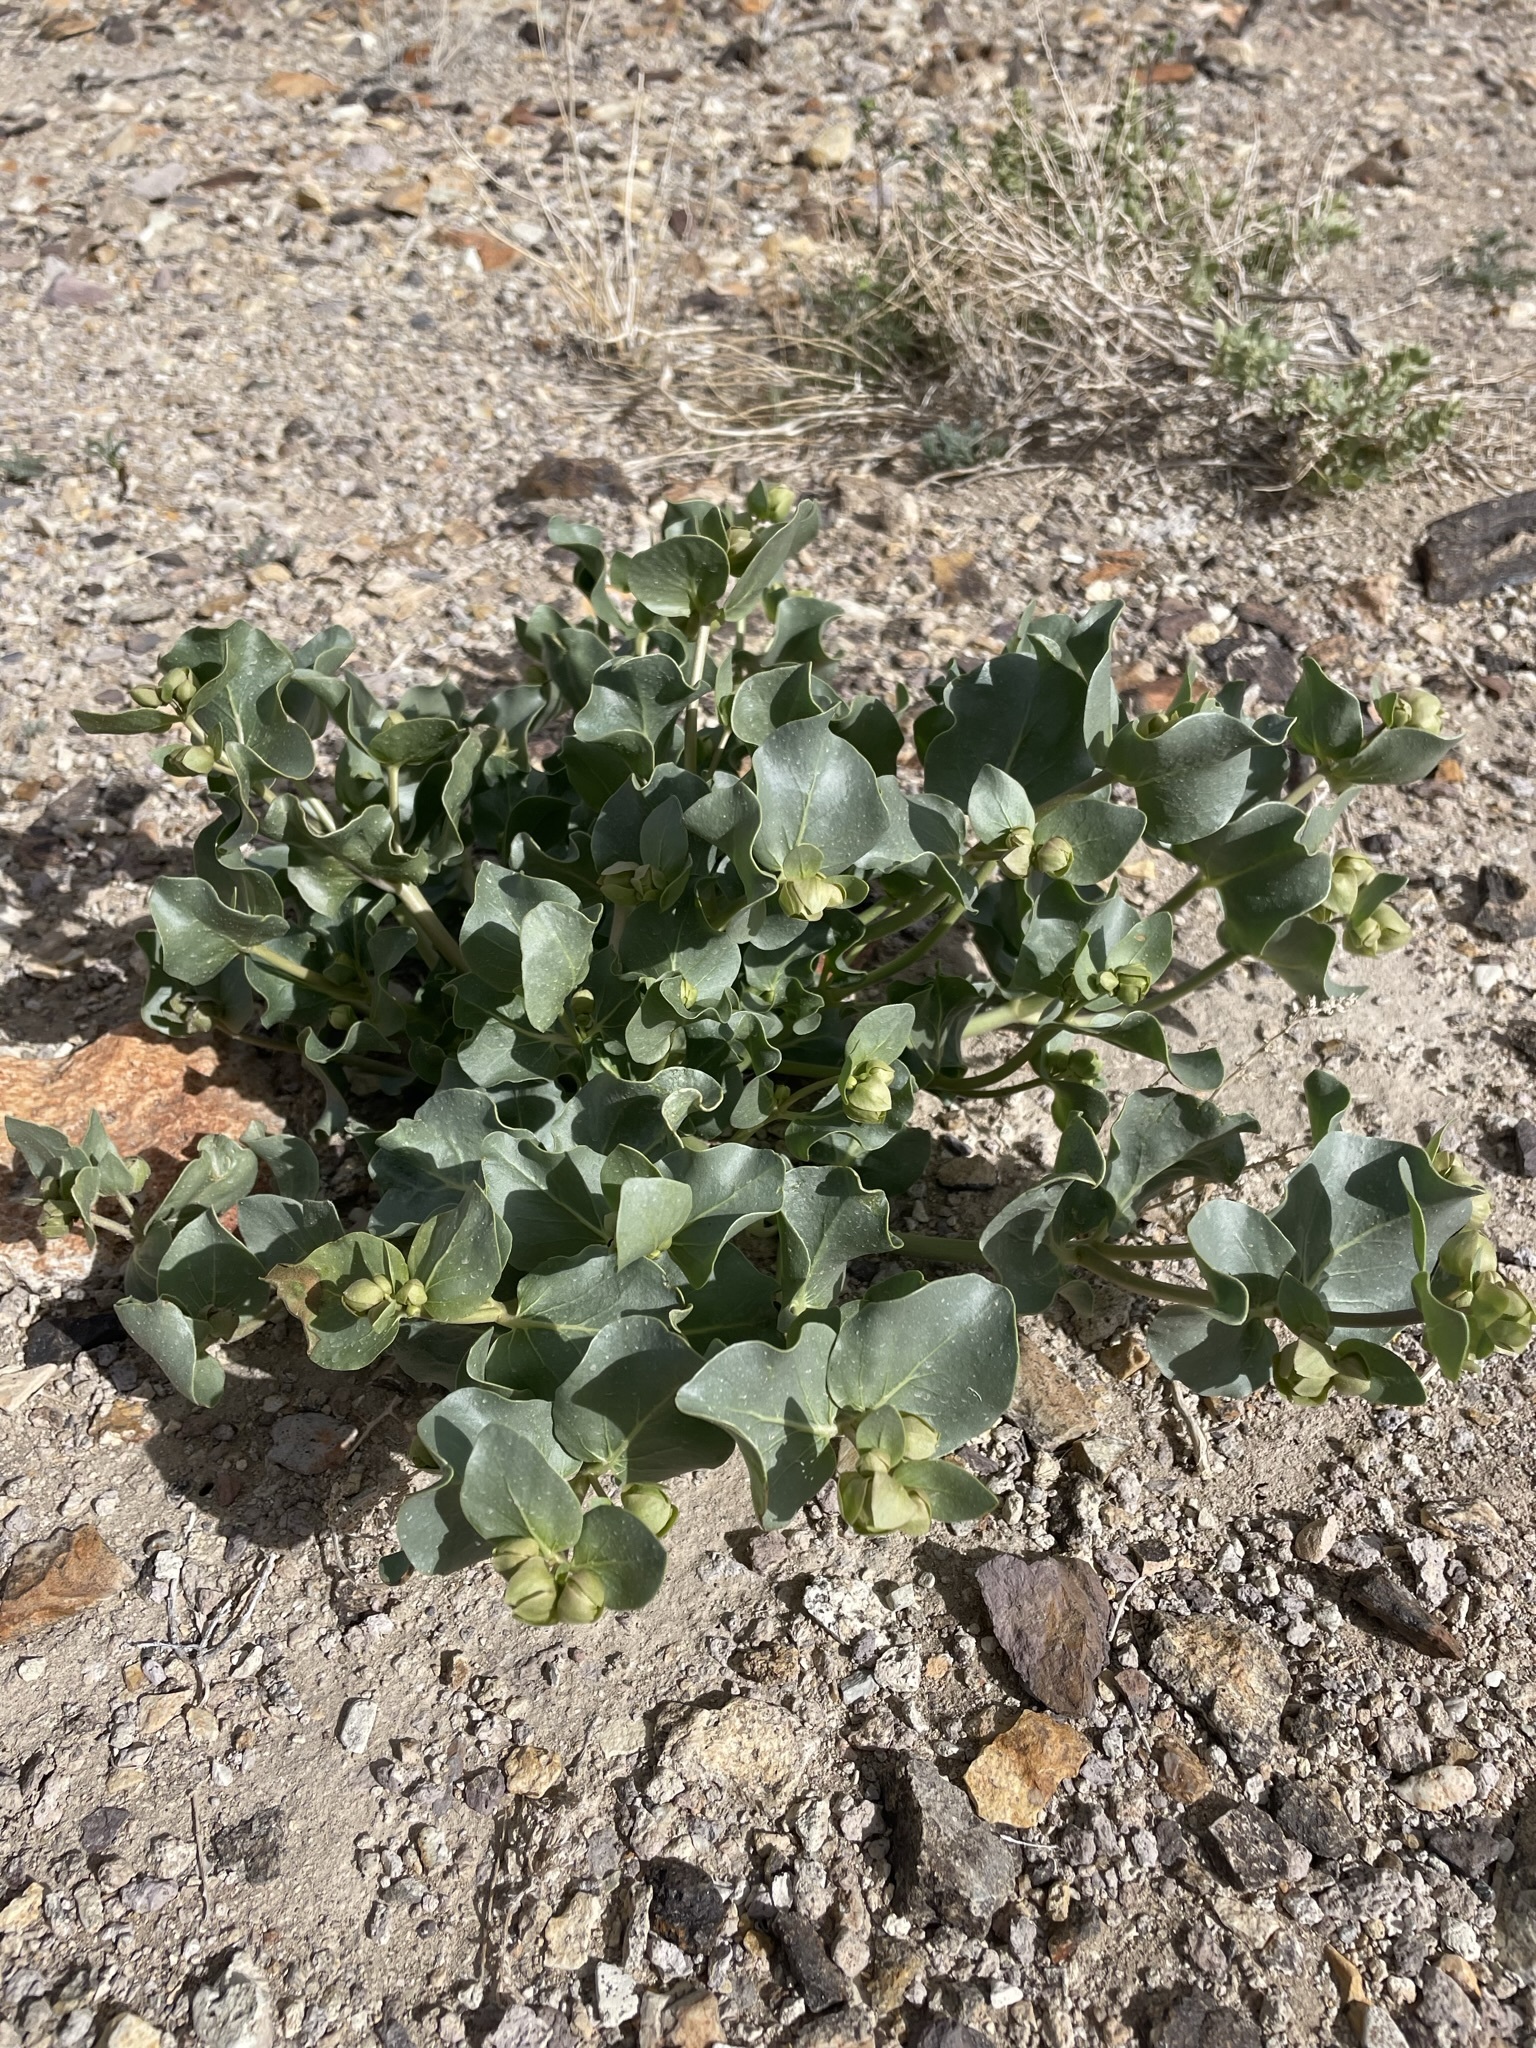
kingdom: Plantae
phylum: Tracheophyta
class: Magnoliopsida
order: Caryophyllales
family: Nyctaginaceae
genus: Mirabilis
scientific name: Mirabilis alipes
